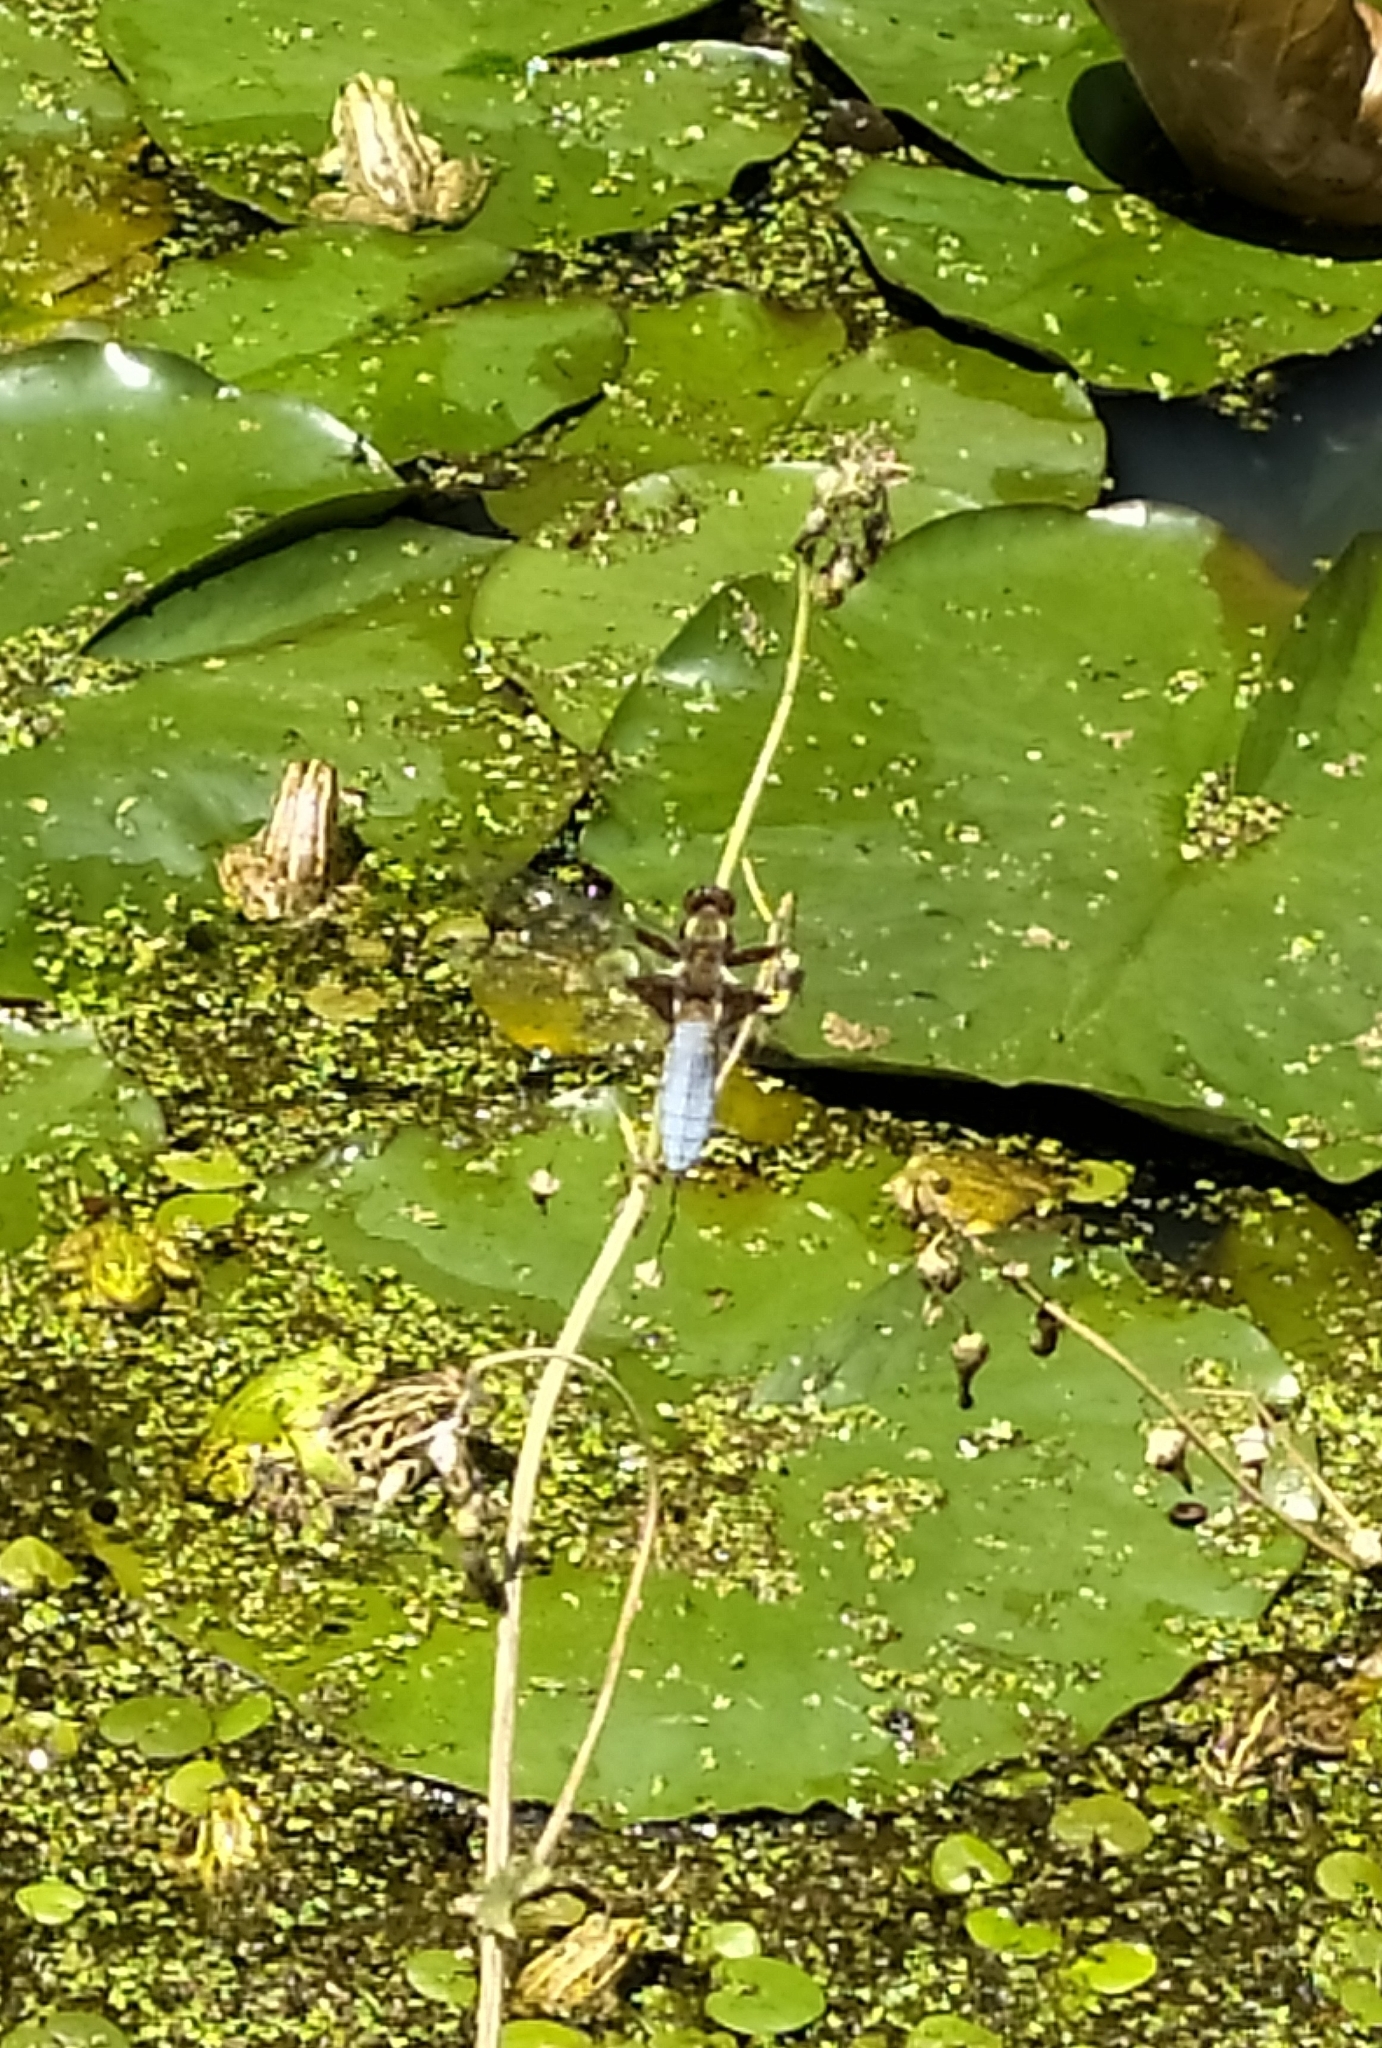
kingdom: Animalia
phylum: Arthropoda
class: Insecta
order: Odonata
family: Libellulidae
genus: Libellula
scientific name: Libellula depressa
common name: Broad-bodied chaser
